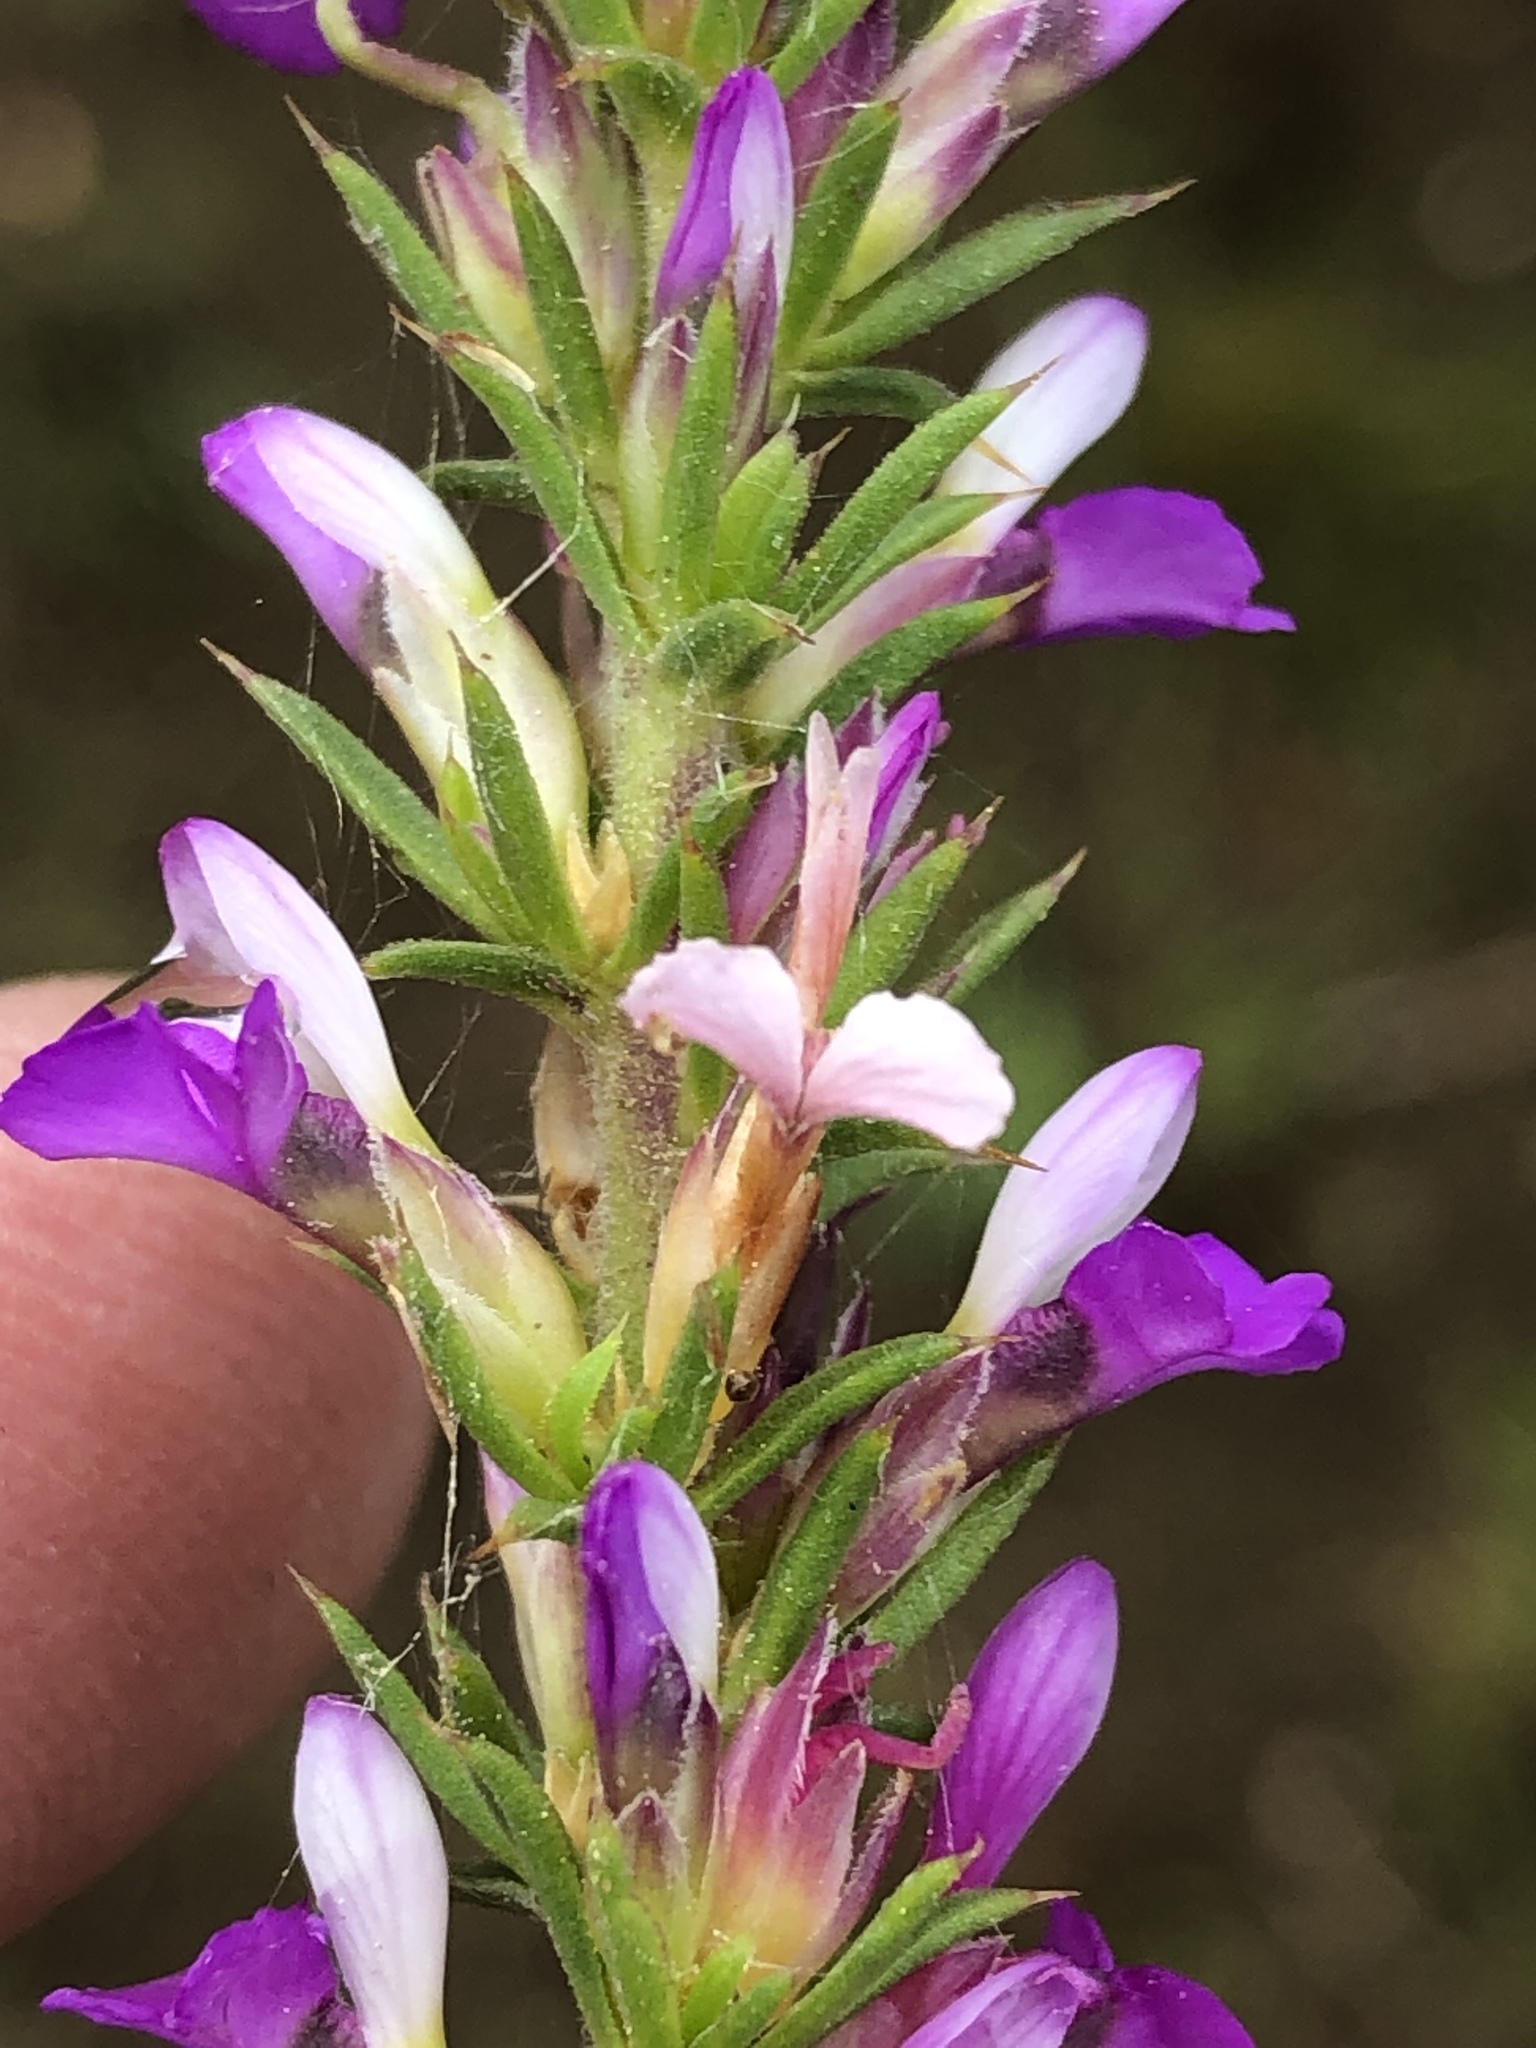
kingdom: Plantae
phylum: Tracheophyta
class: Magnoliopsida
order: Fabales
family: Polygalaceae
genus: Muraltia
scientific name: Muraltia heisteria
